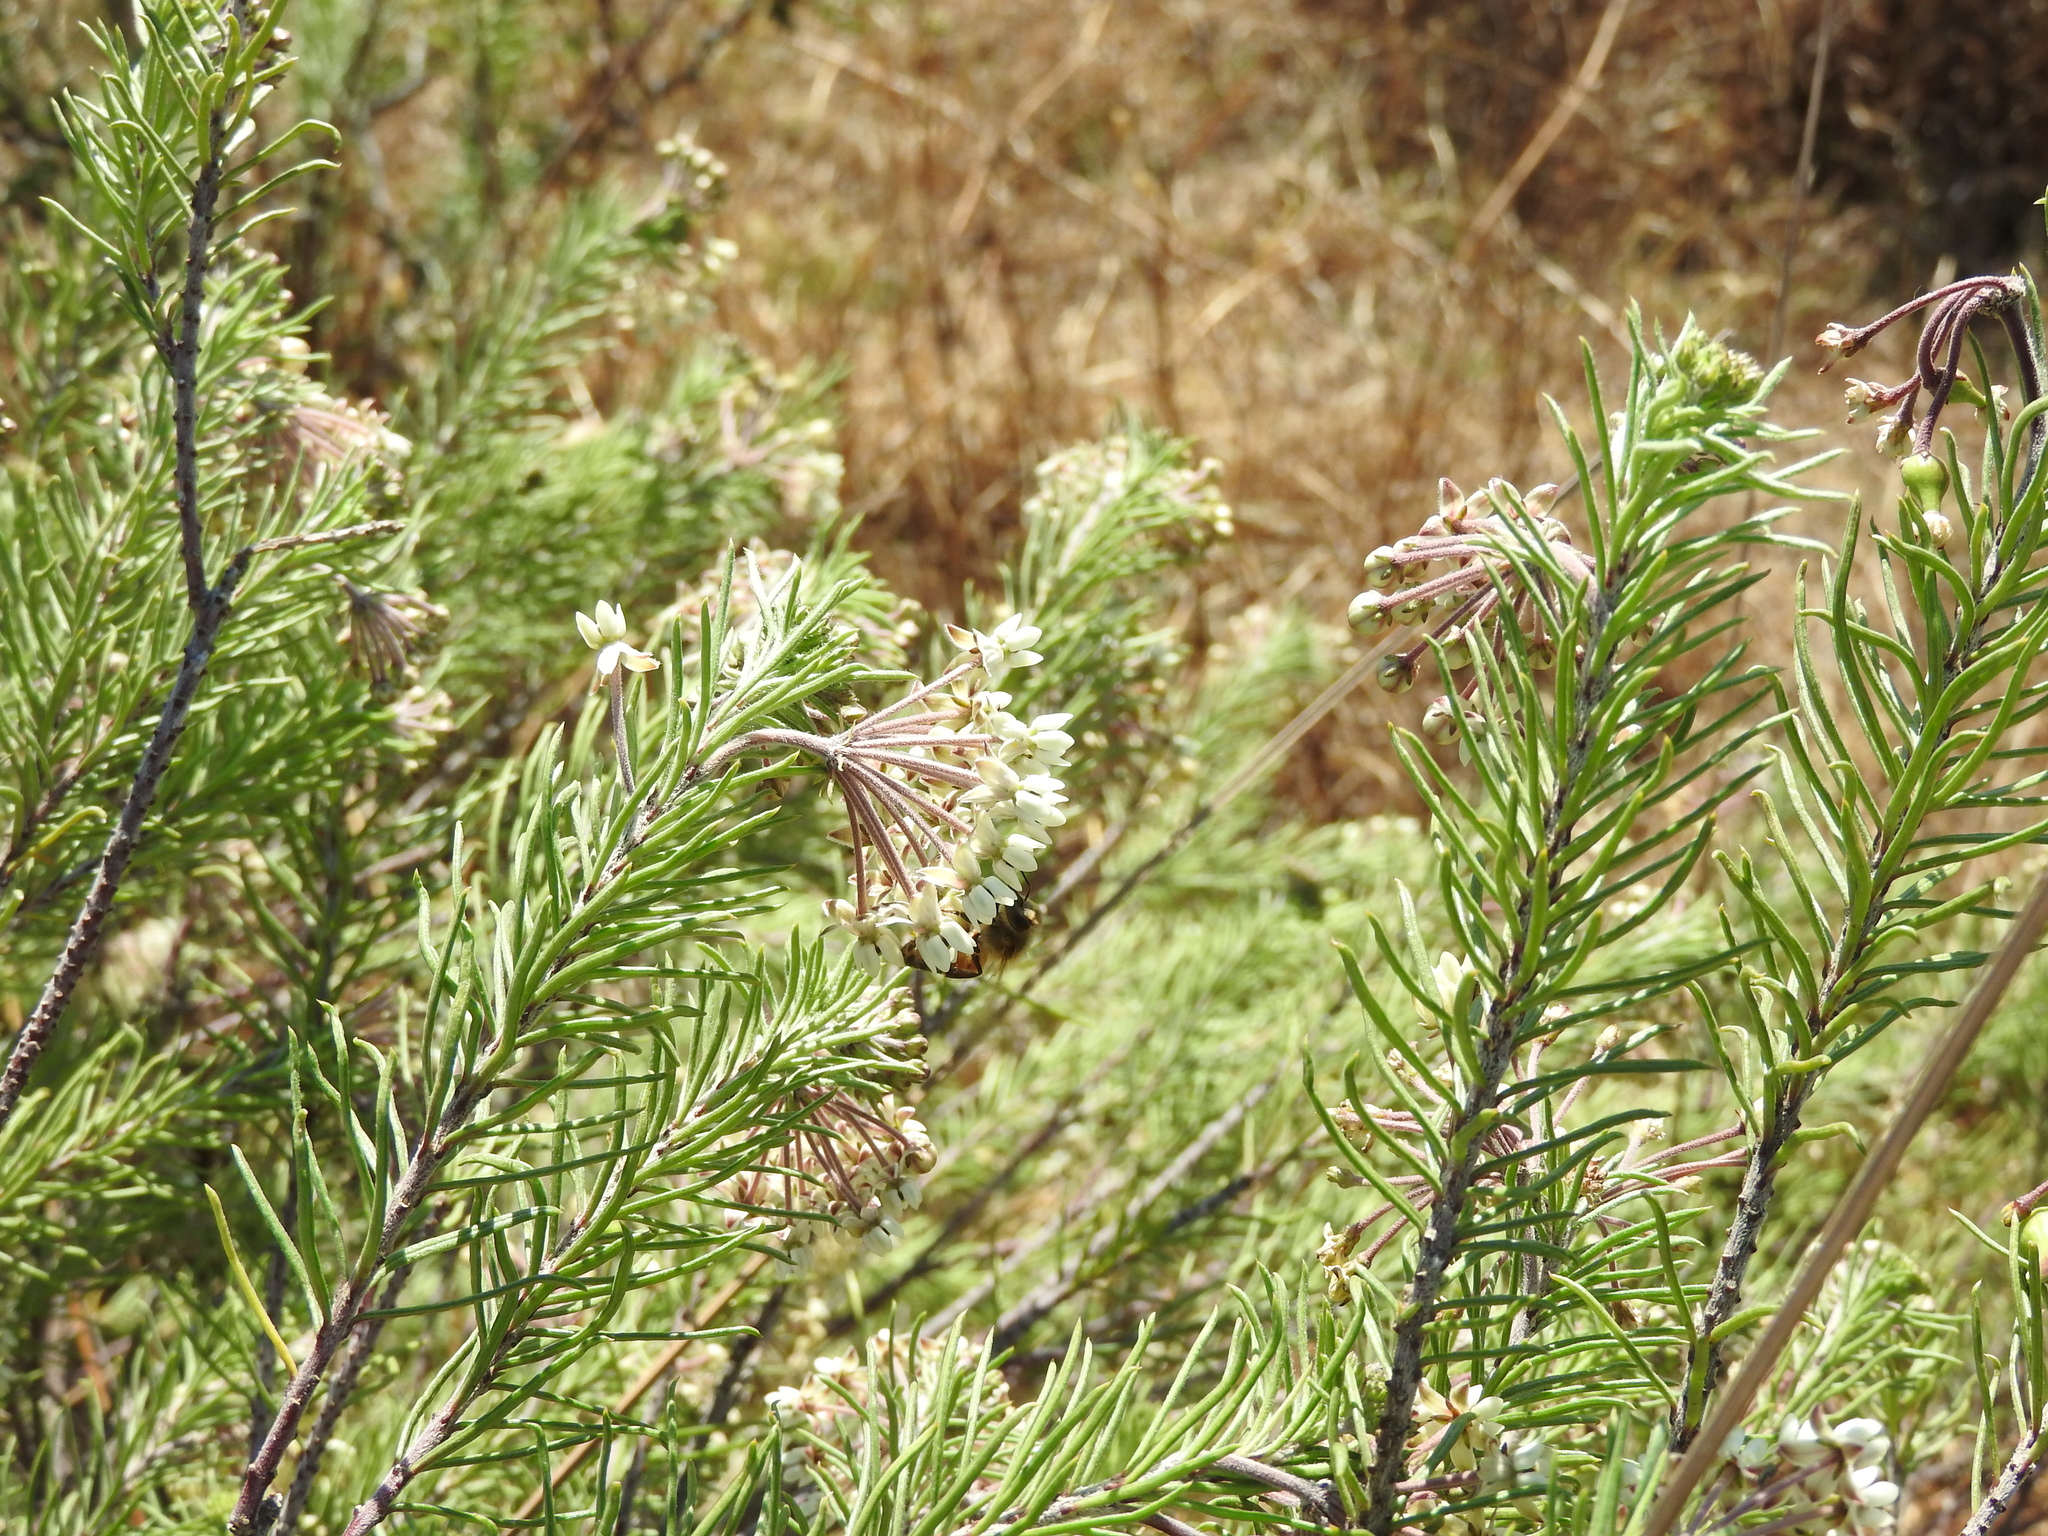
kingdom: Plantae
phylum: Tracheophyta
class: Magnoliopsida
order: Gentianales
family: Apocynaceae
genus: Asclepias
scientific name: Asclepias linaria
